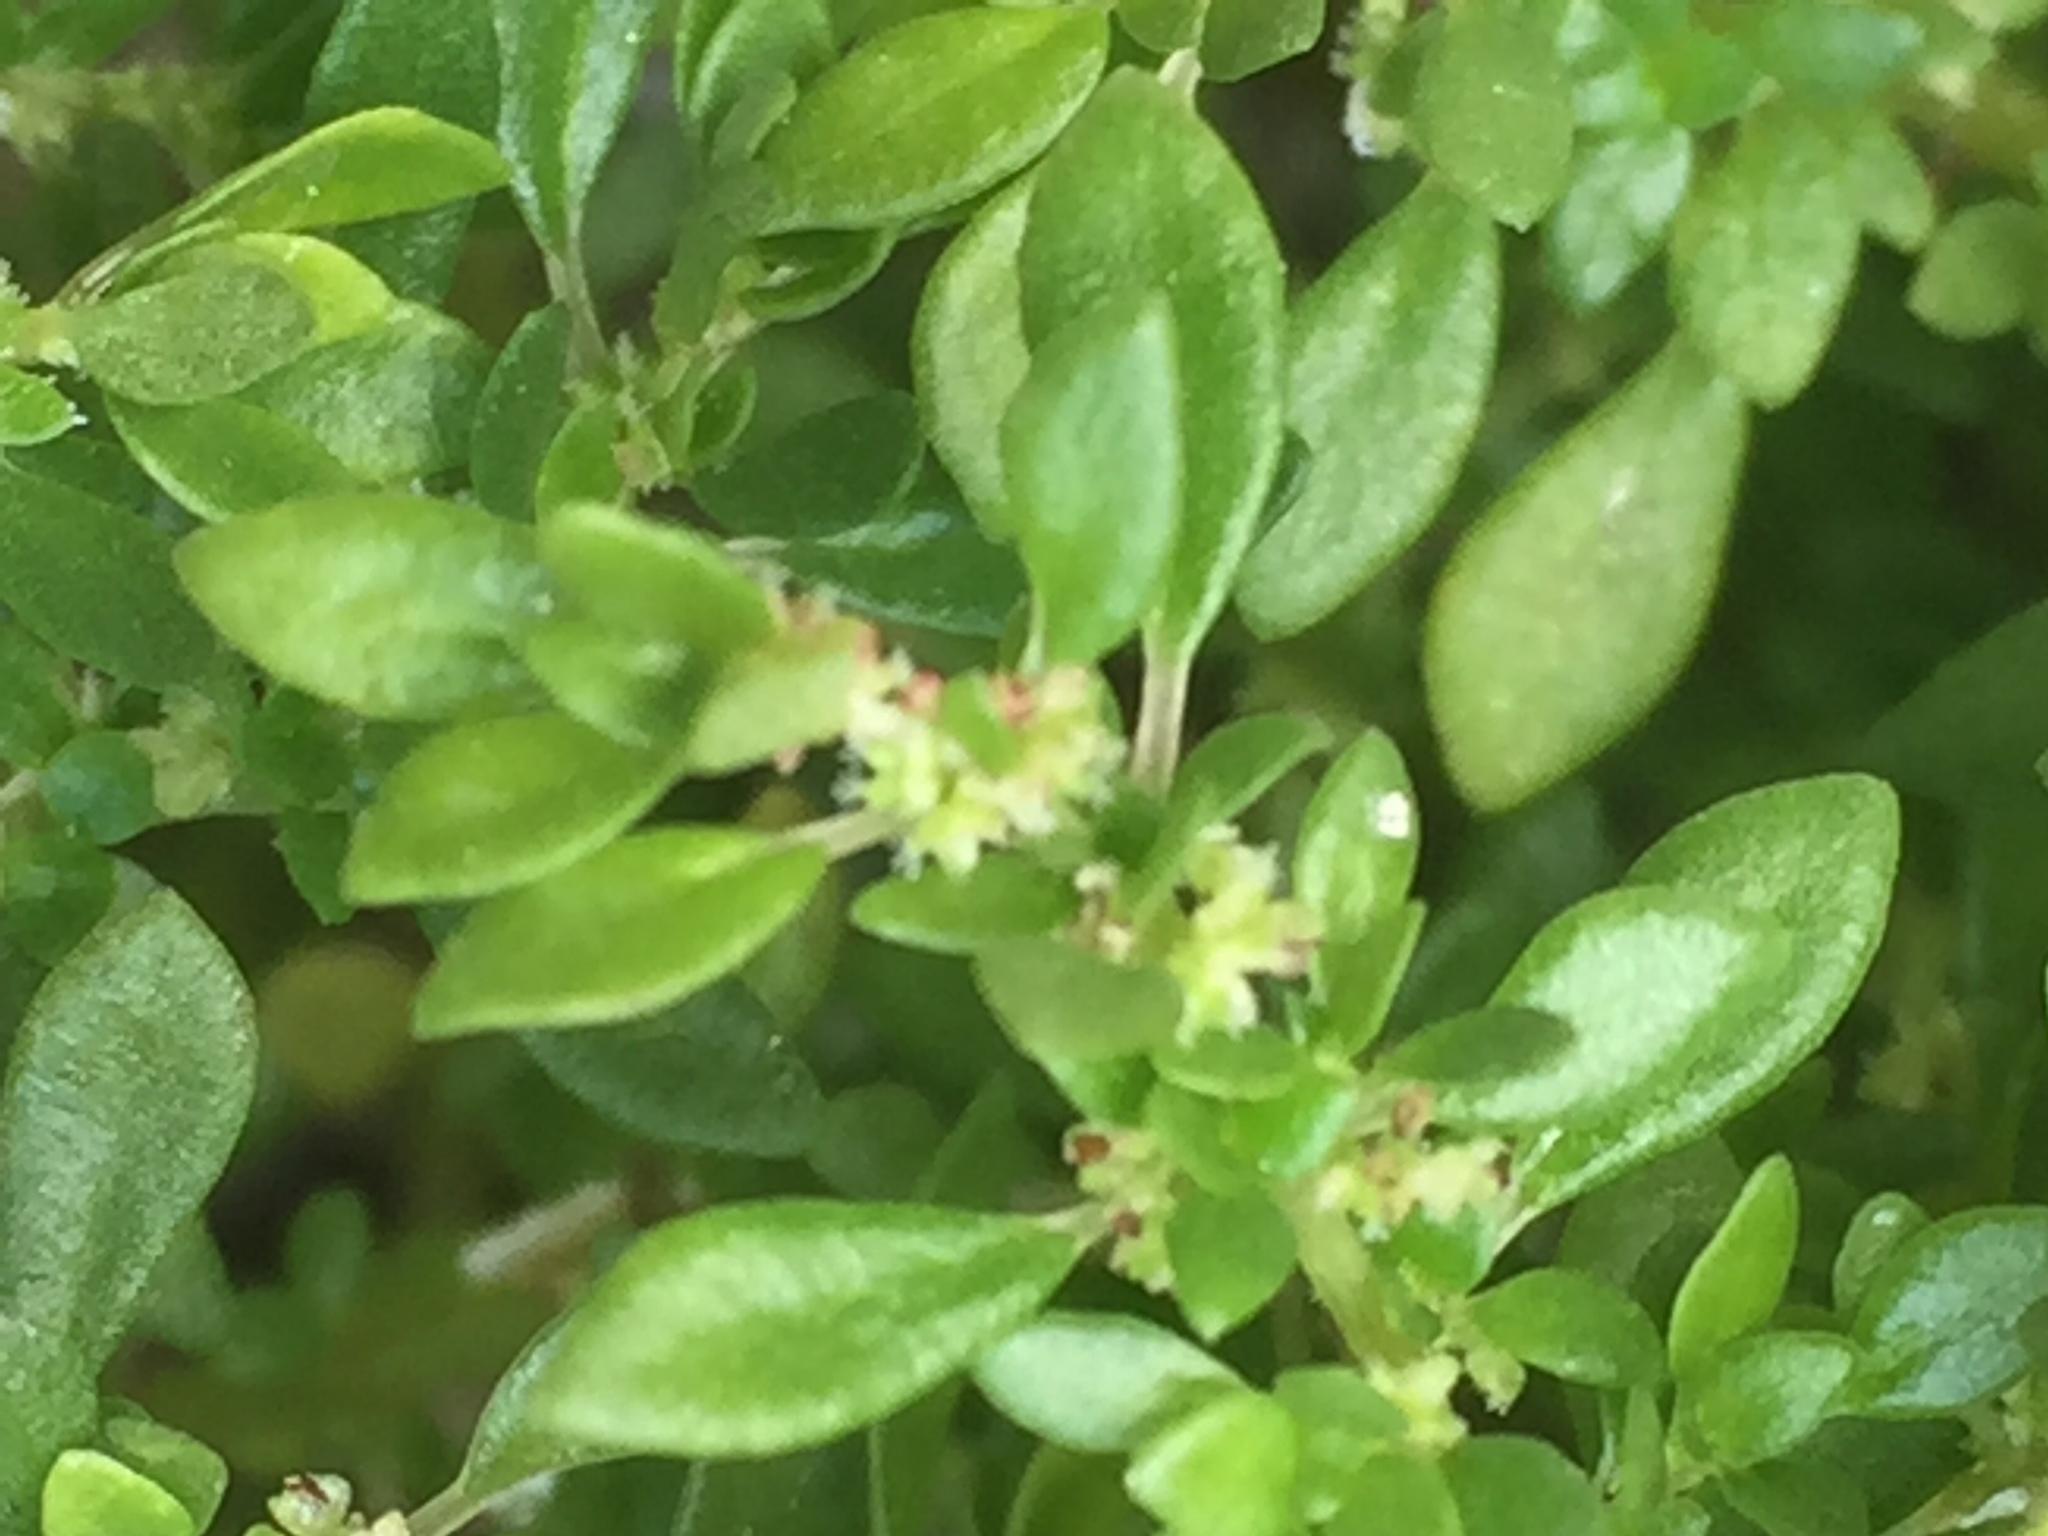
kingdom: Plantae
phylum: Tracheophyta
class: Magnoliopsida
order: Rosales
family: Urticaceae
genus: Pilea
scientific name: Pilea microphylla
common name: Artillery-plant
